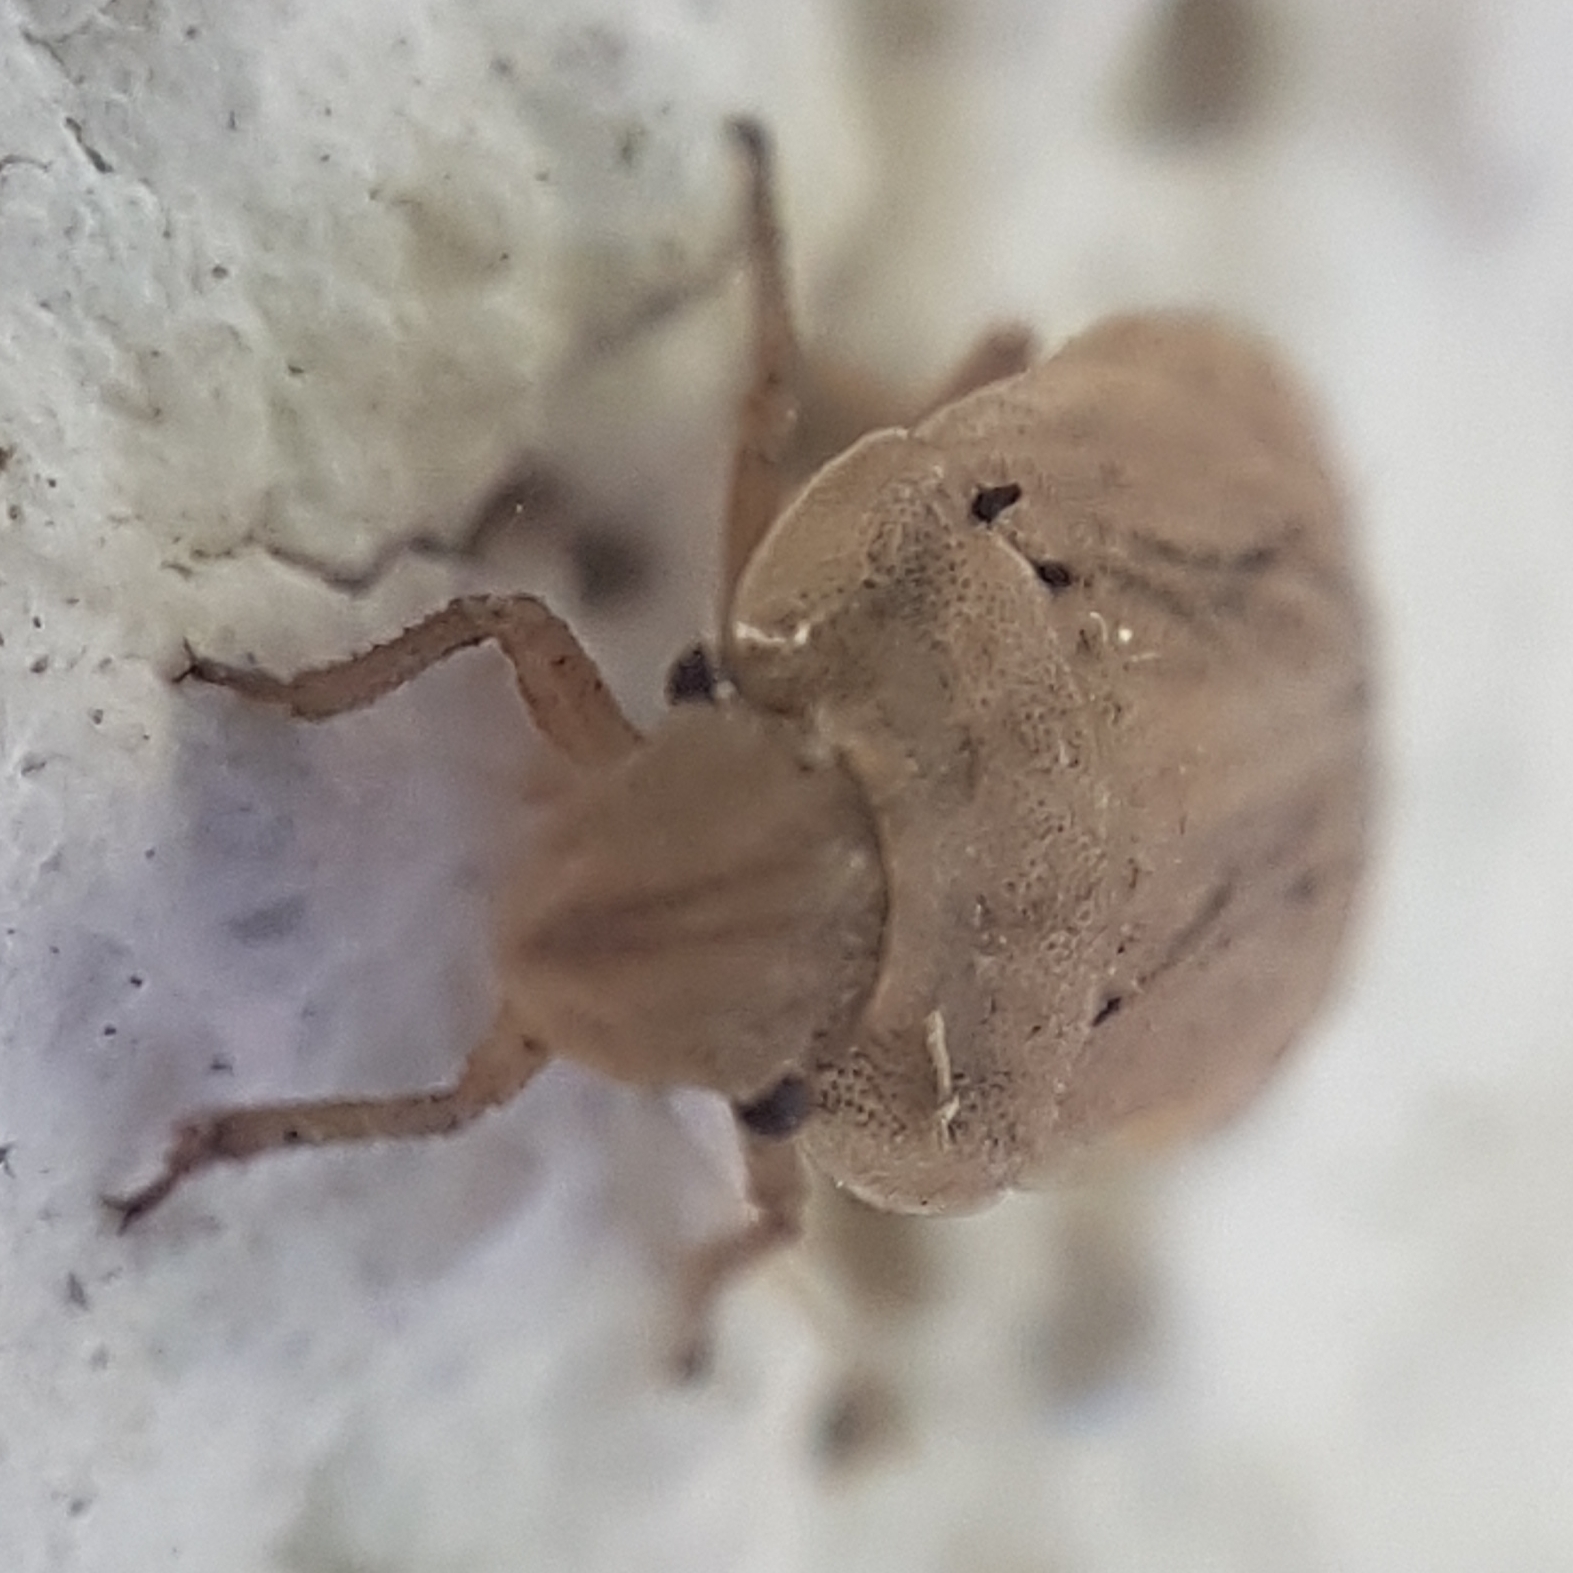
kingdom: Animalia
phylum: Arthropoda
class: Insecta
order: Hemiptera
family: Pentatomidae
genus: Sciocoris
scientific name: Sciocoris sulcatus
